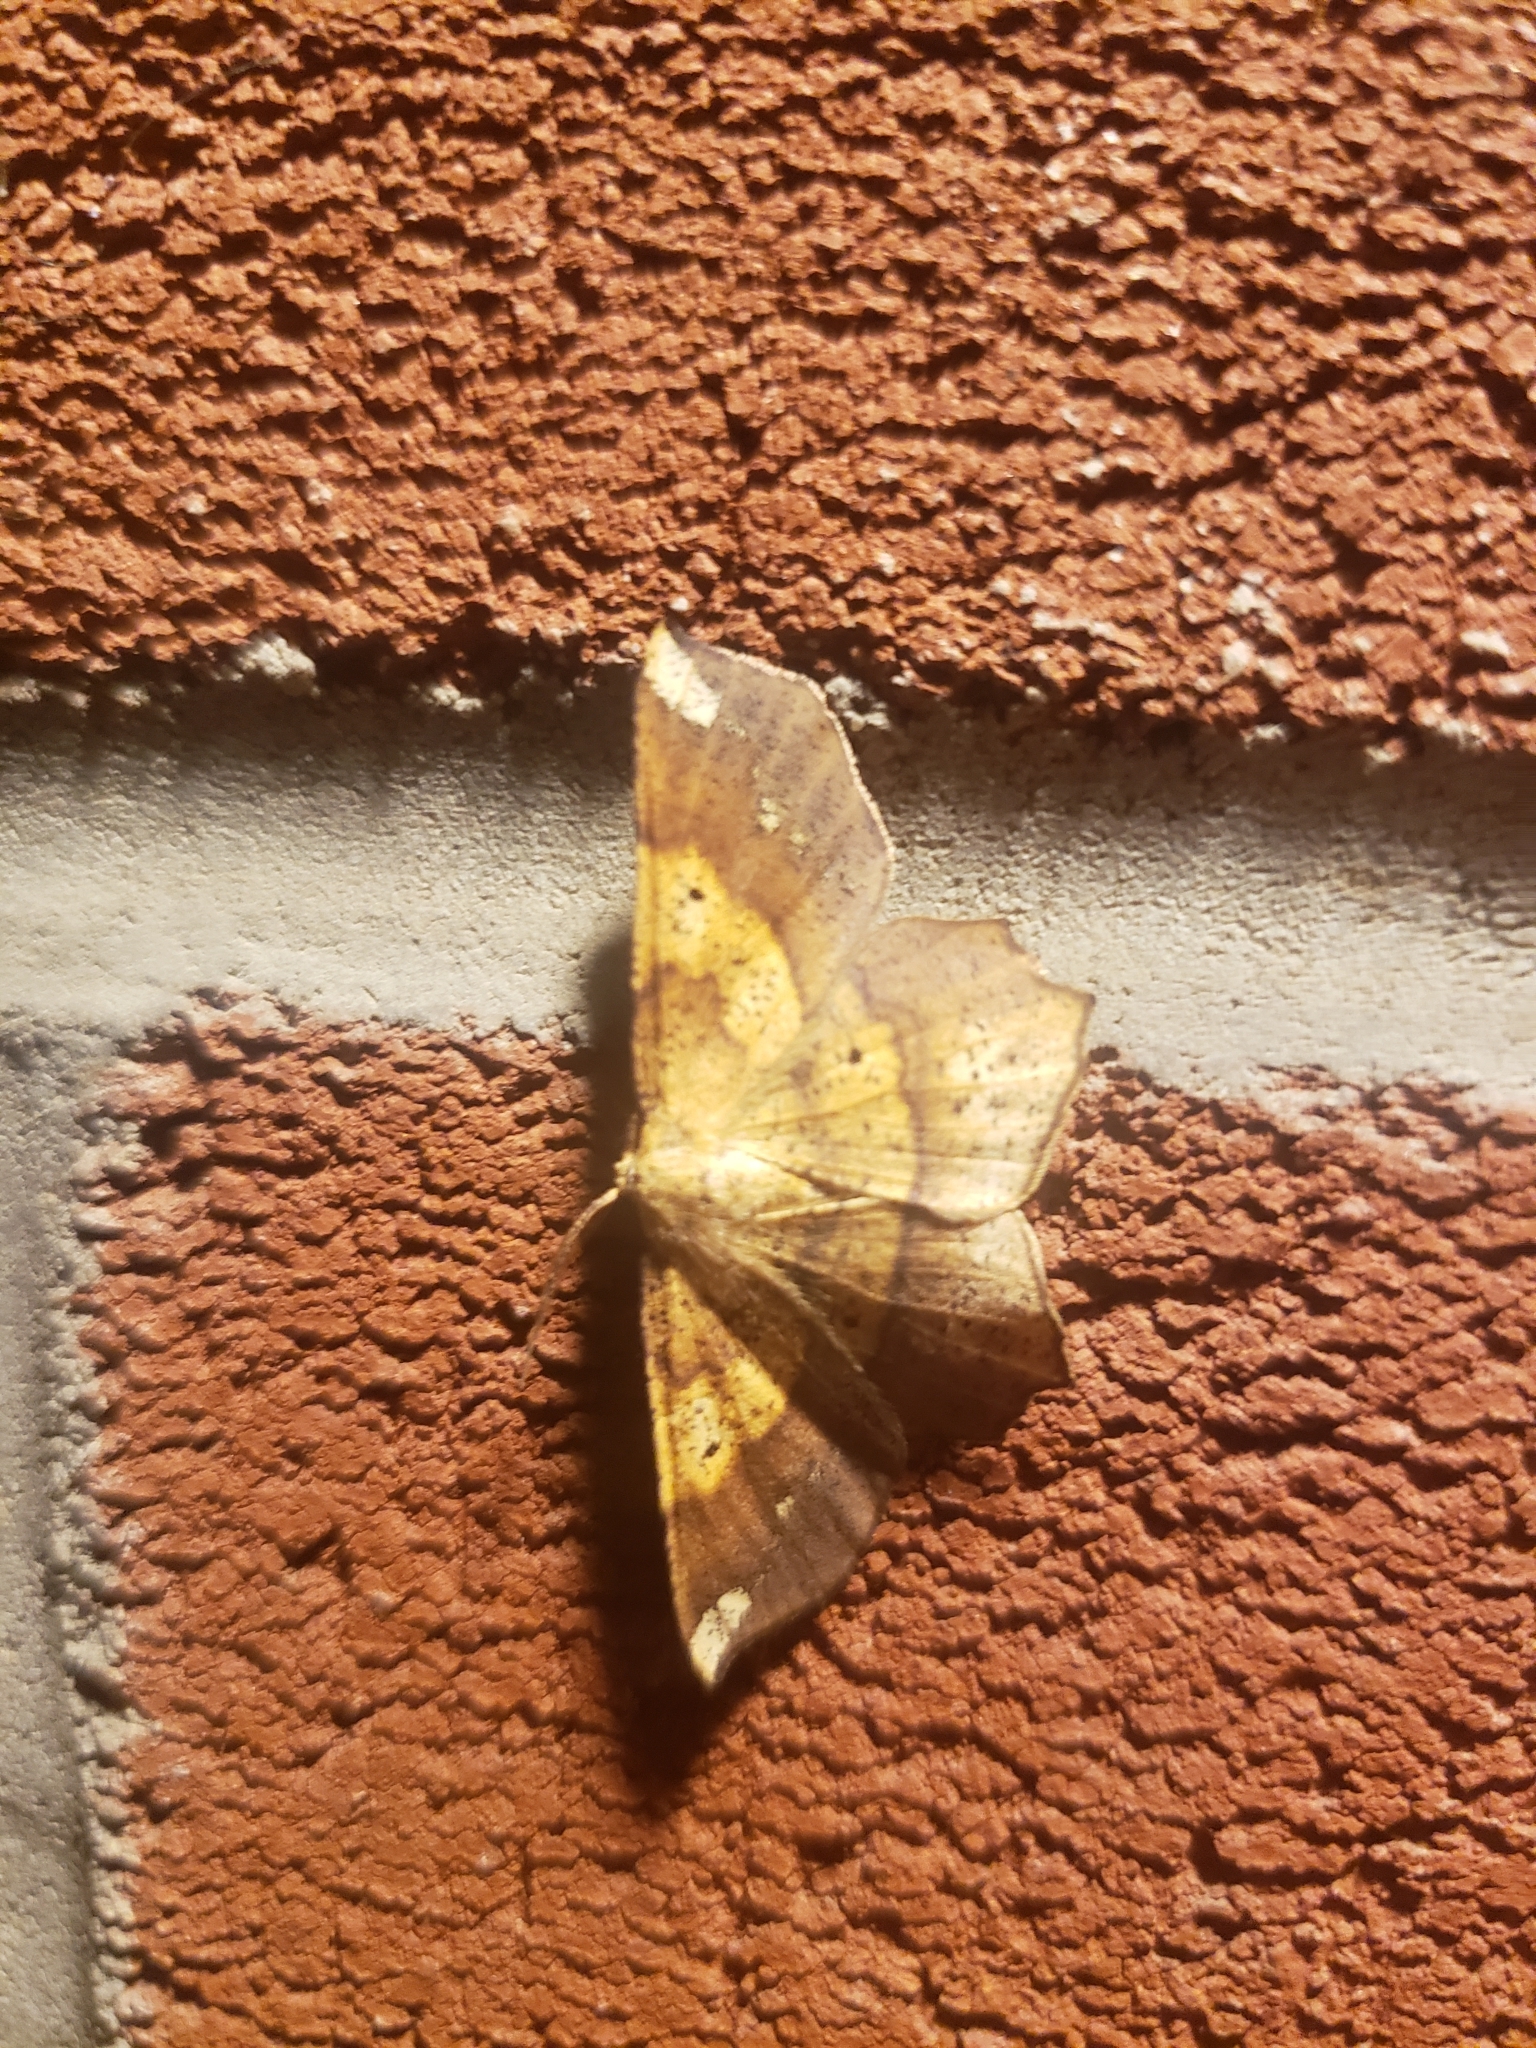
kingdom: Animalia
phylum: Arthropoda
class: Insecta
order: Lepidoptera
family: Geometridae
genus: Euchlaena
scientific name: Euchlaena amoenaria
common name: Deep yellow euchlaena
